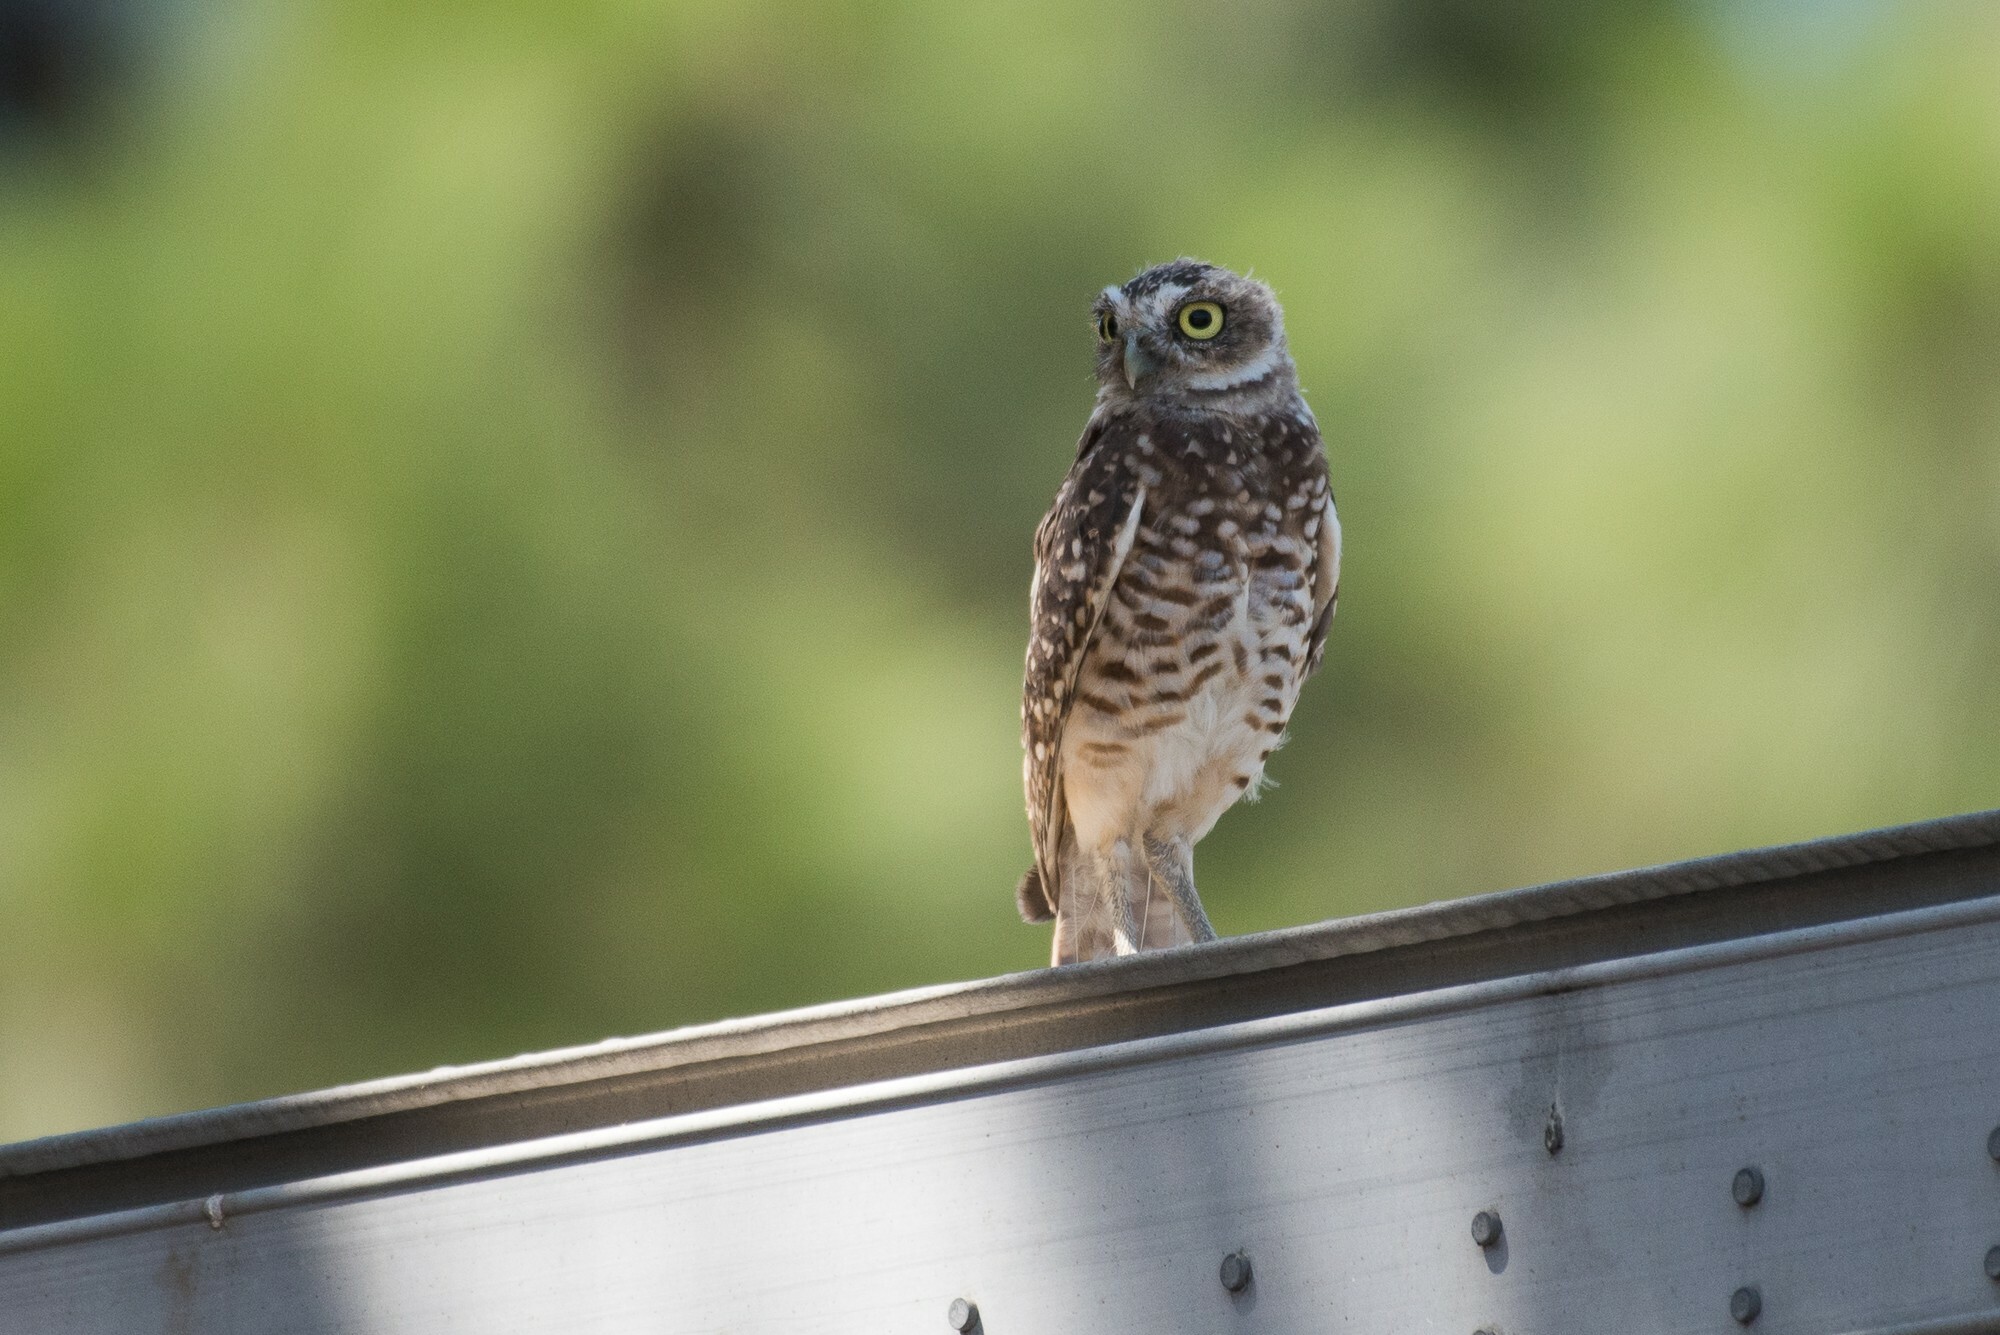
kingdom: Animalia
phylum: Chordata
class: Aves
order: Strigiformes
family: Strigidae
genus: Athene
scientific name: Athene cunicularia
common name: Burrowing owl
